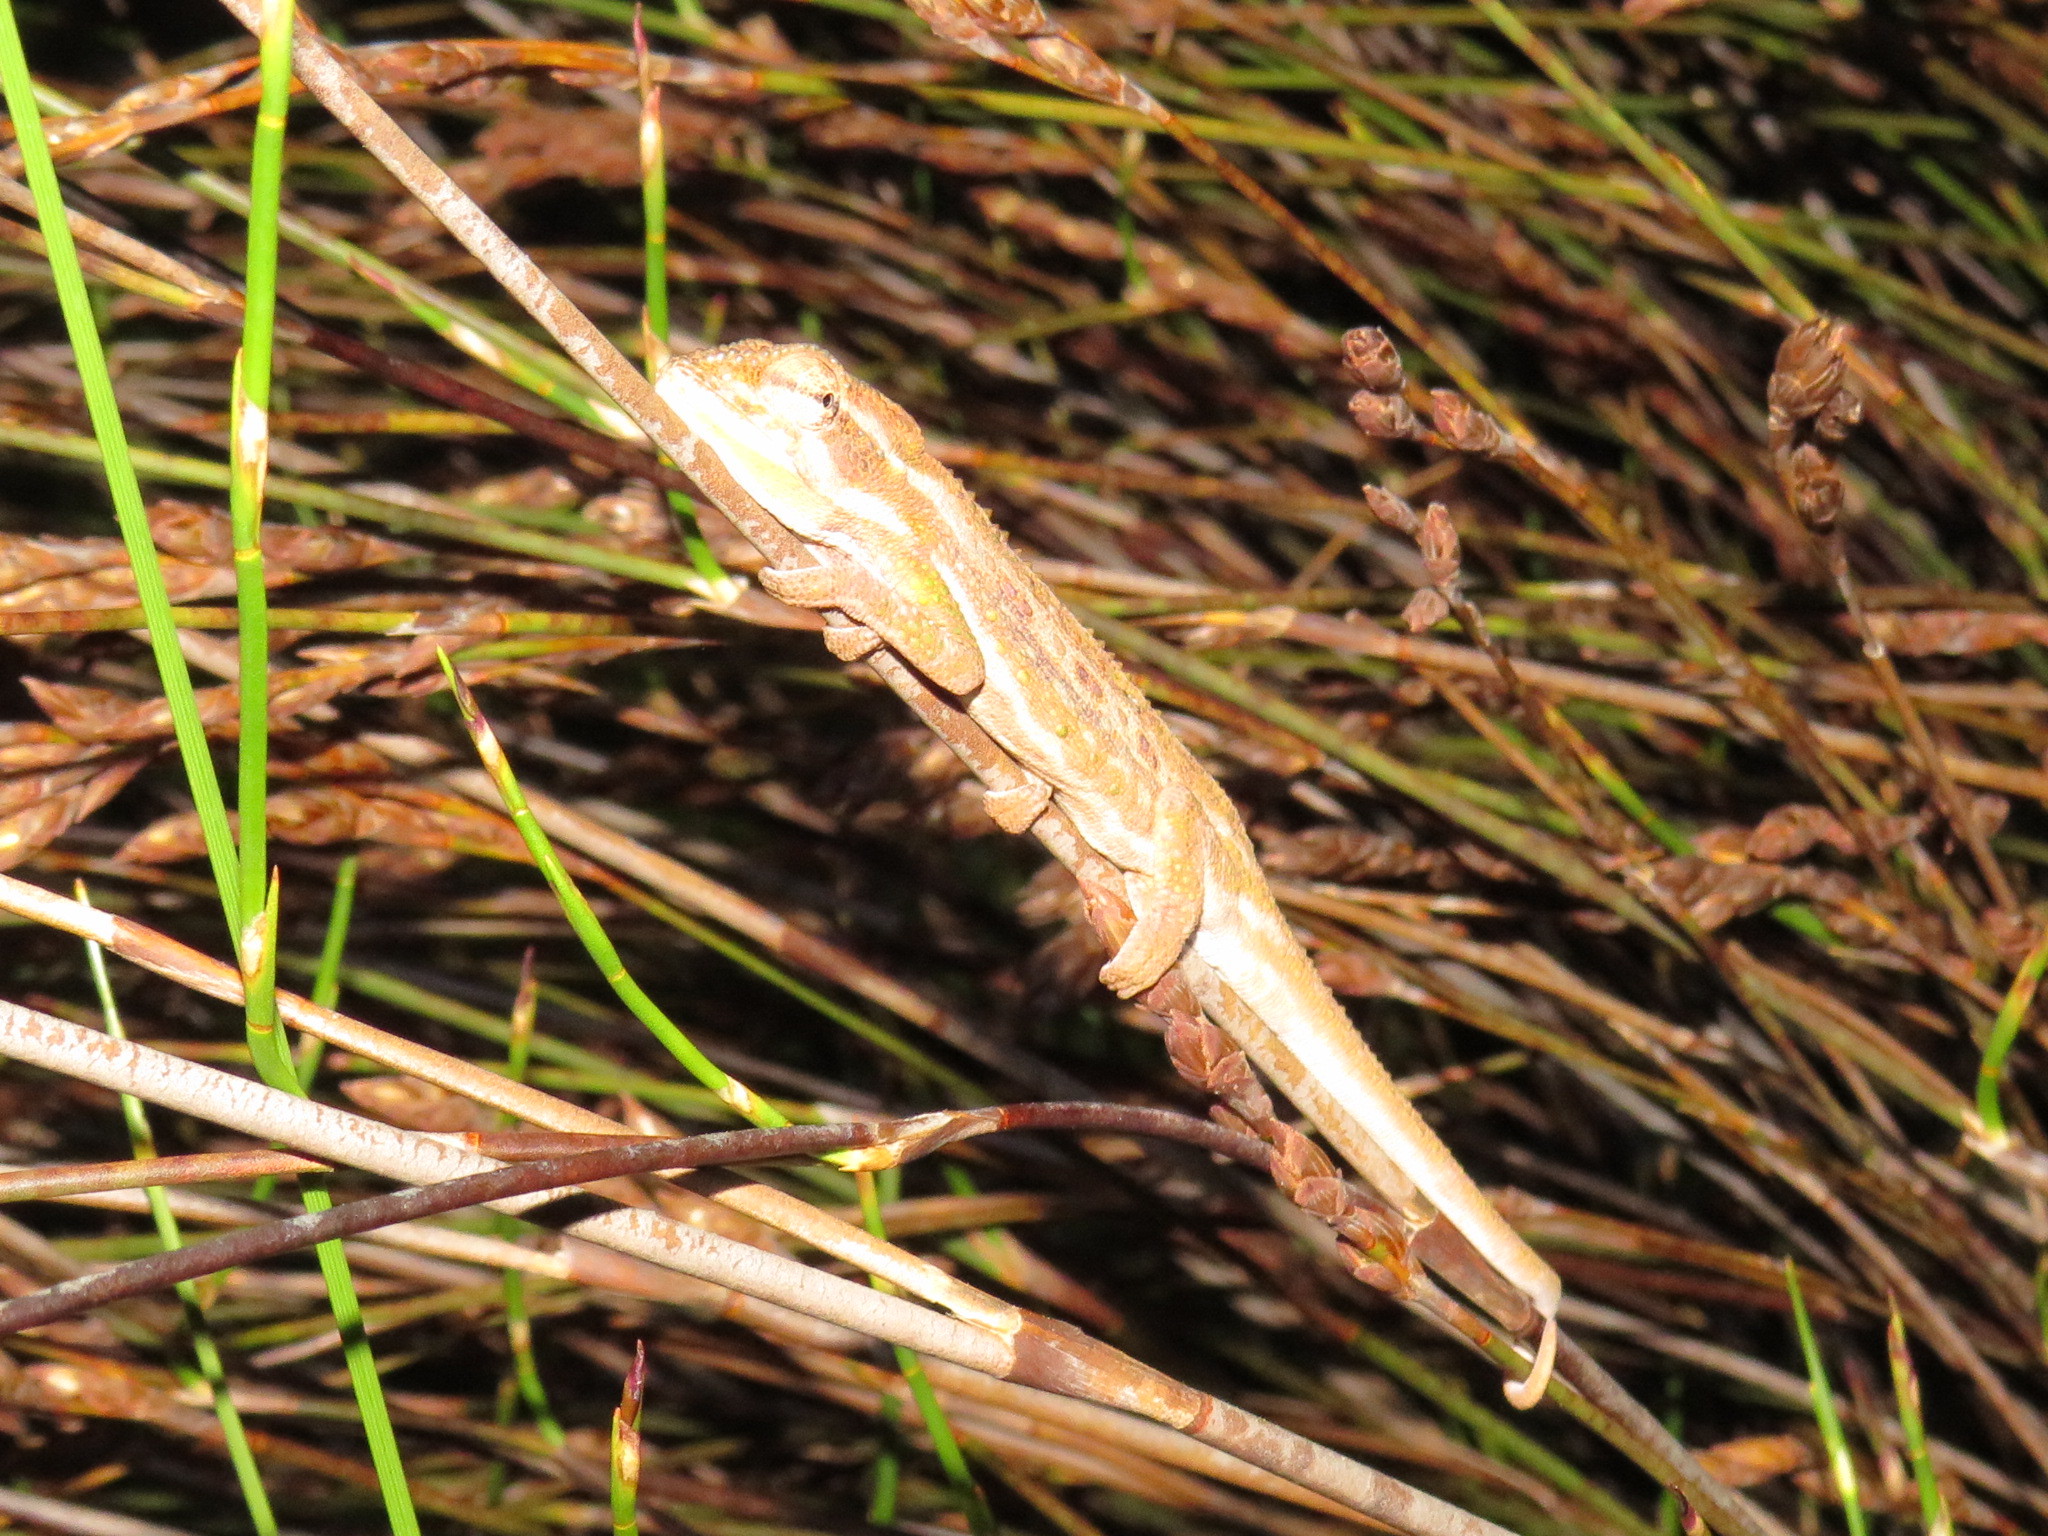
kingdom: Animalia
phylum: Chordata
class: Squamata
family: Chamaeleonidae
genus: Bradypodion
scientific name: Bradypodion pumilum
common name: Cape dwarf chameleon
